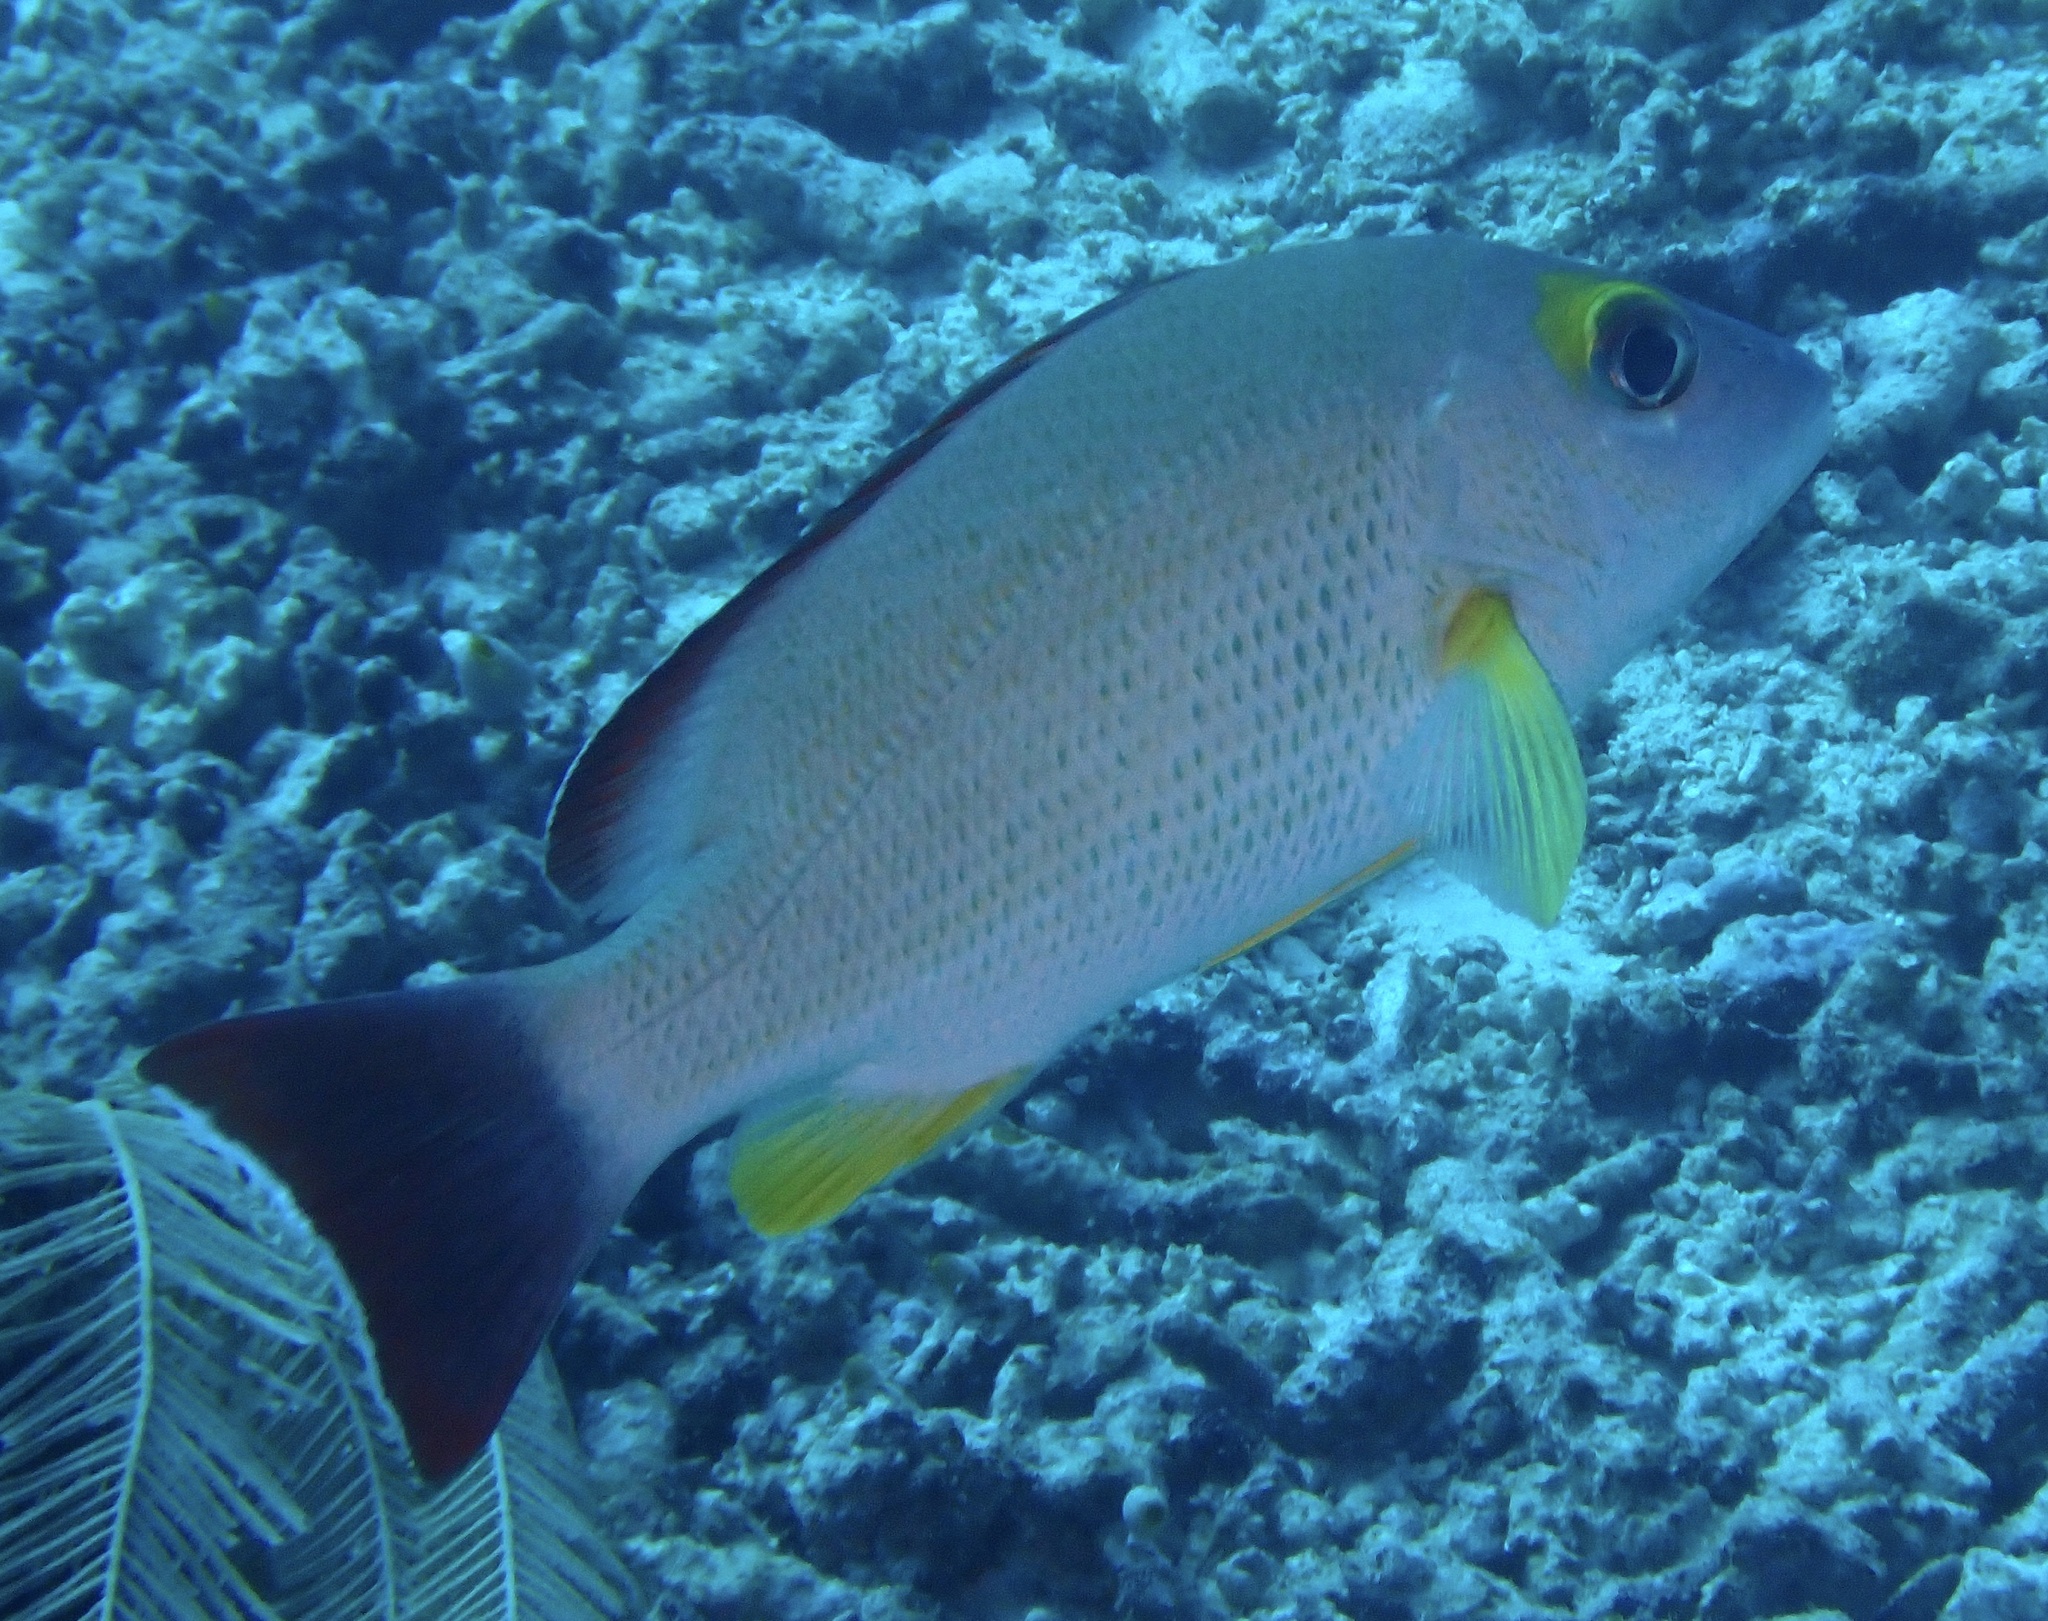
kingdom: Animalia
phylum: Chordata
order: Perciformes
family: Lutjanidae
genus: Lutjanus
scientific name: Lutjanus fulvus
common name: Blacktail snapper
